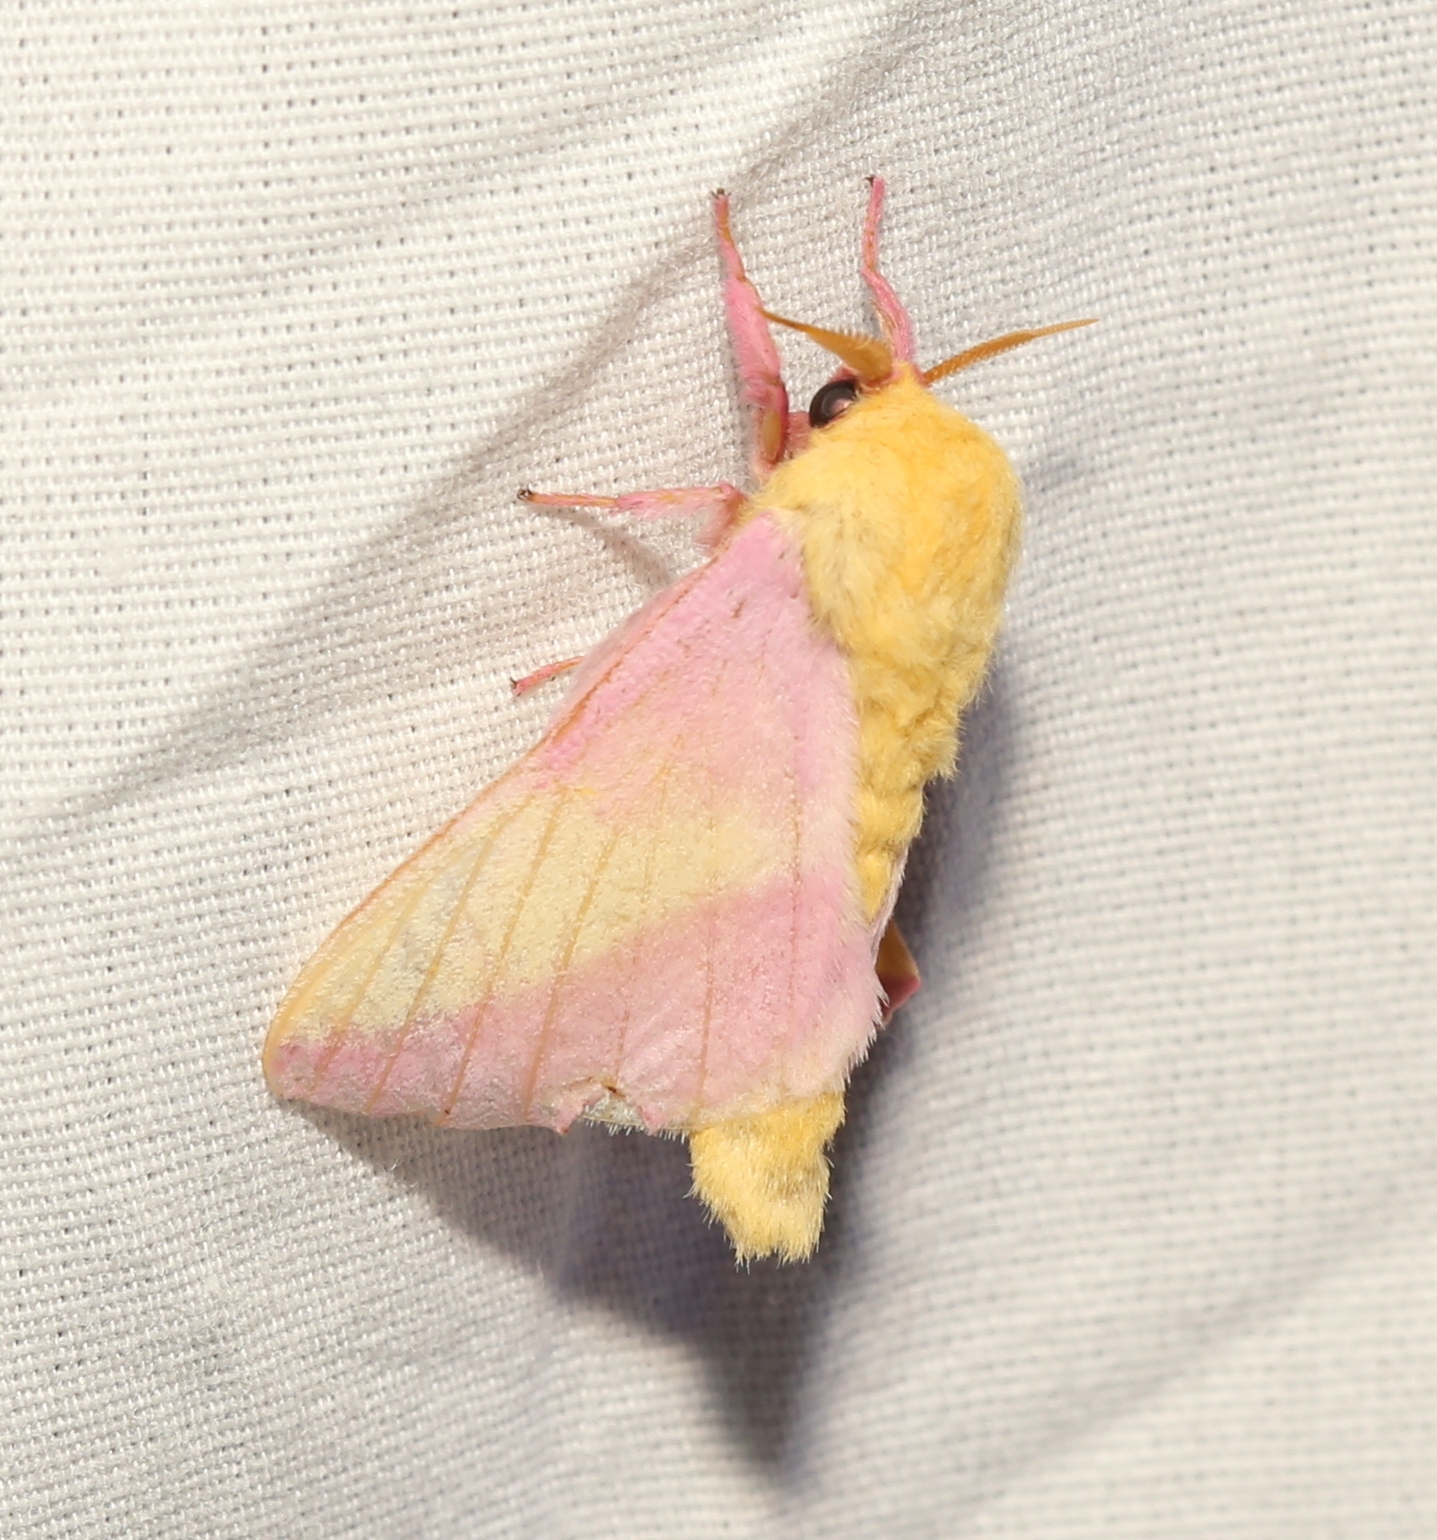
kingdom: Animalia
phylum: Arthropoda
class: Insecta
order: Lepidoptera
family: Saturniidae
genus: Dryocampa
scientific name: Dryocampa rubicunda
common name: Rosy maple moth
